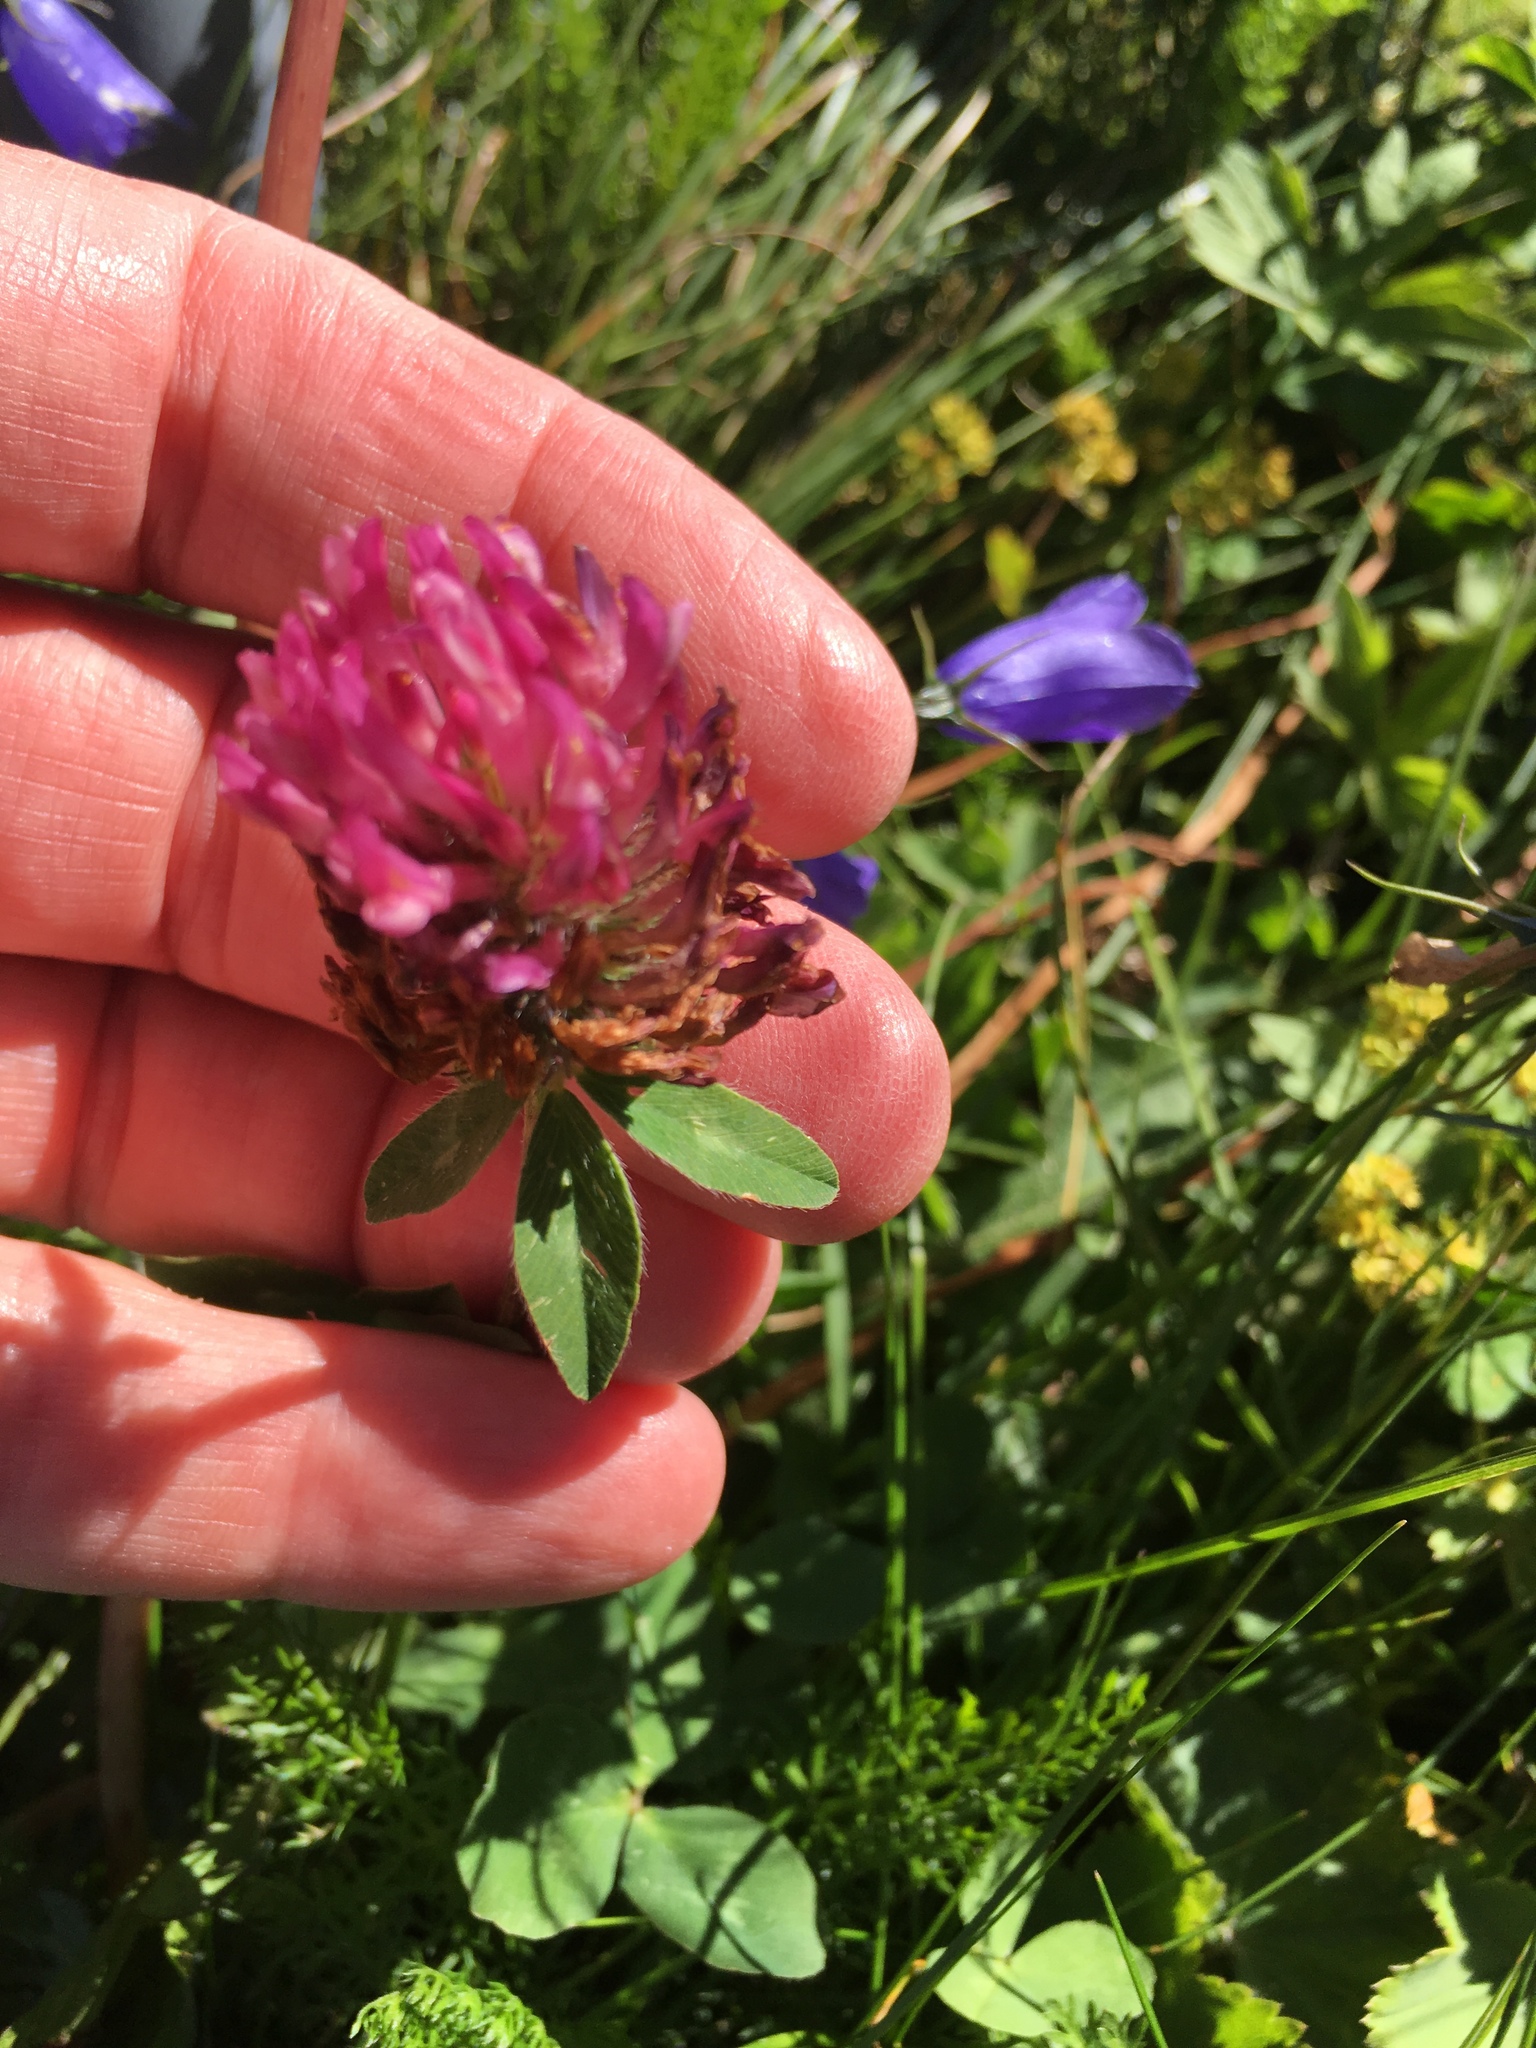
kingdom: Plantae
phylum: Tracheophyta
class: Magnoliopsida
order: Fabales
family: Fabaceae
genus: Trifolium
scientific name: Trifolium pratense
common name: Red clover
